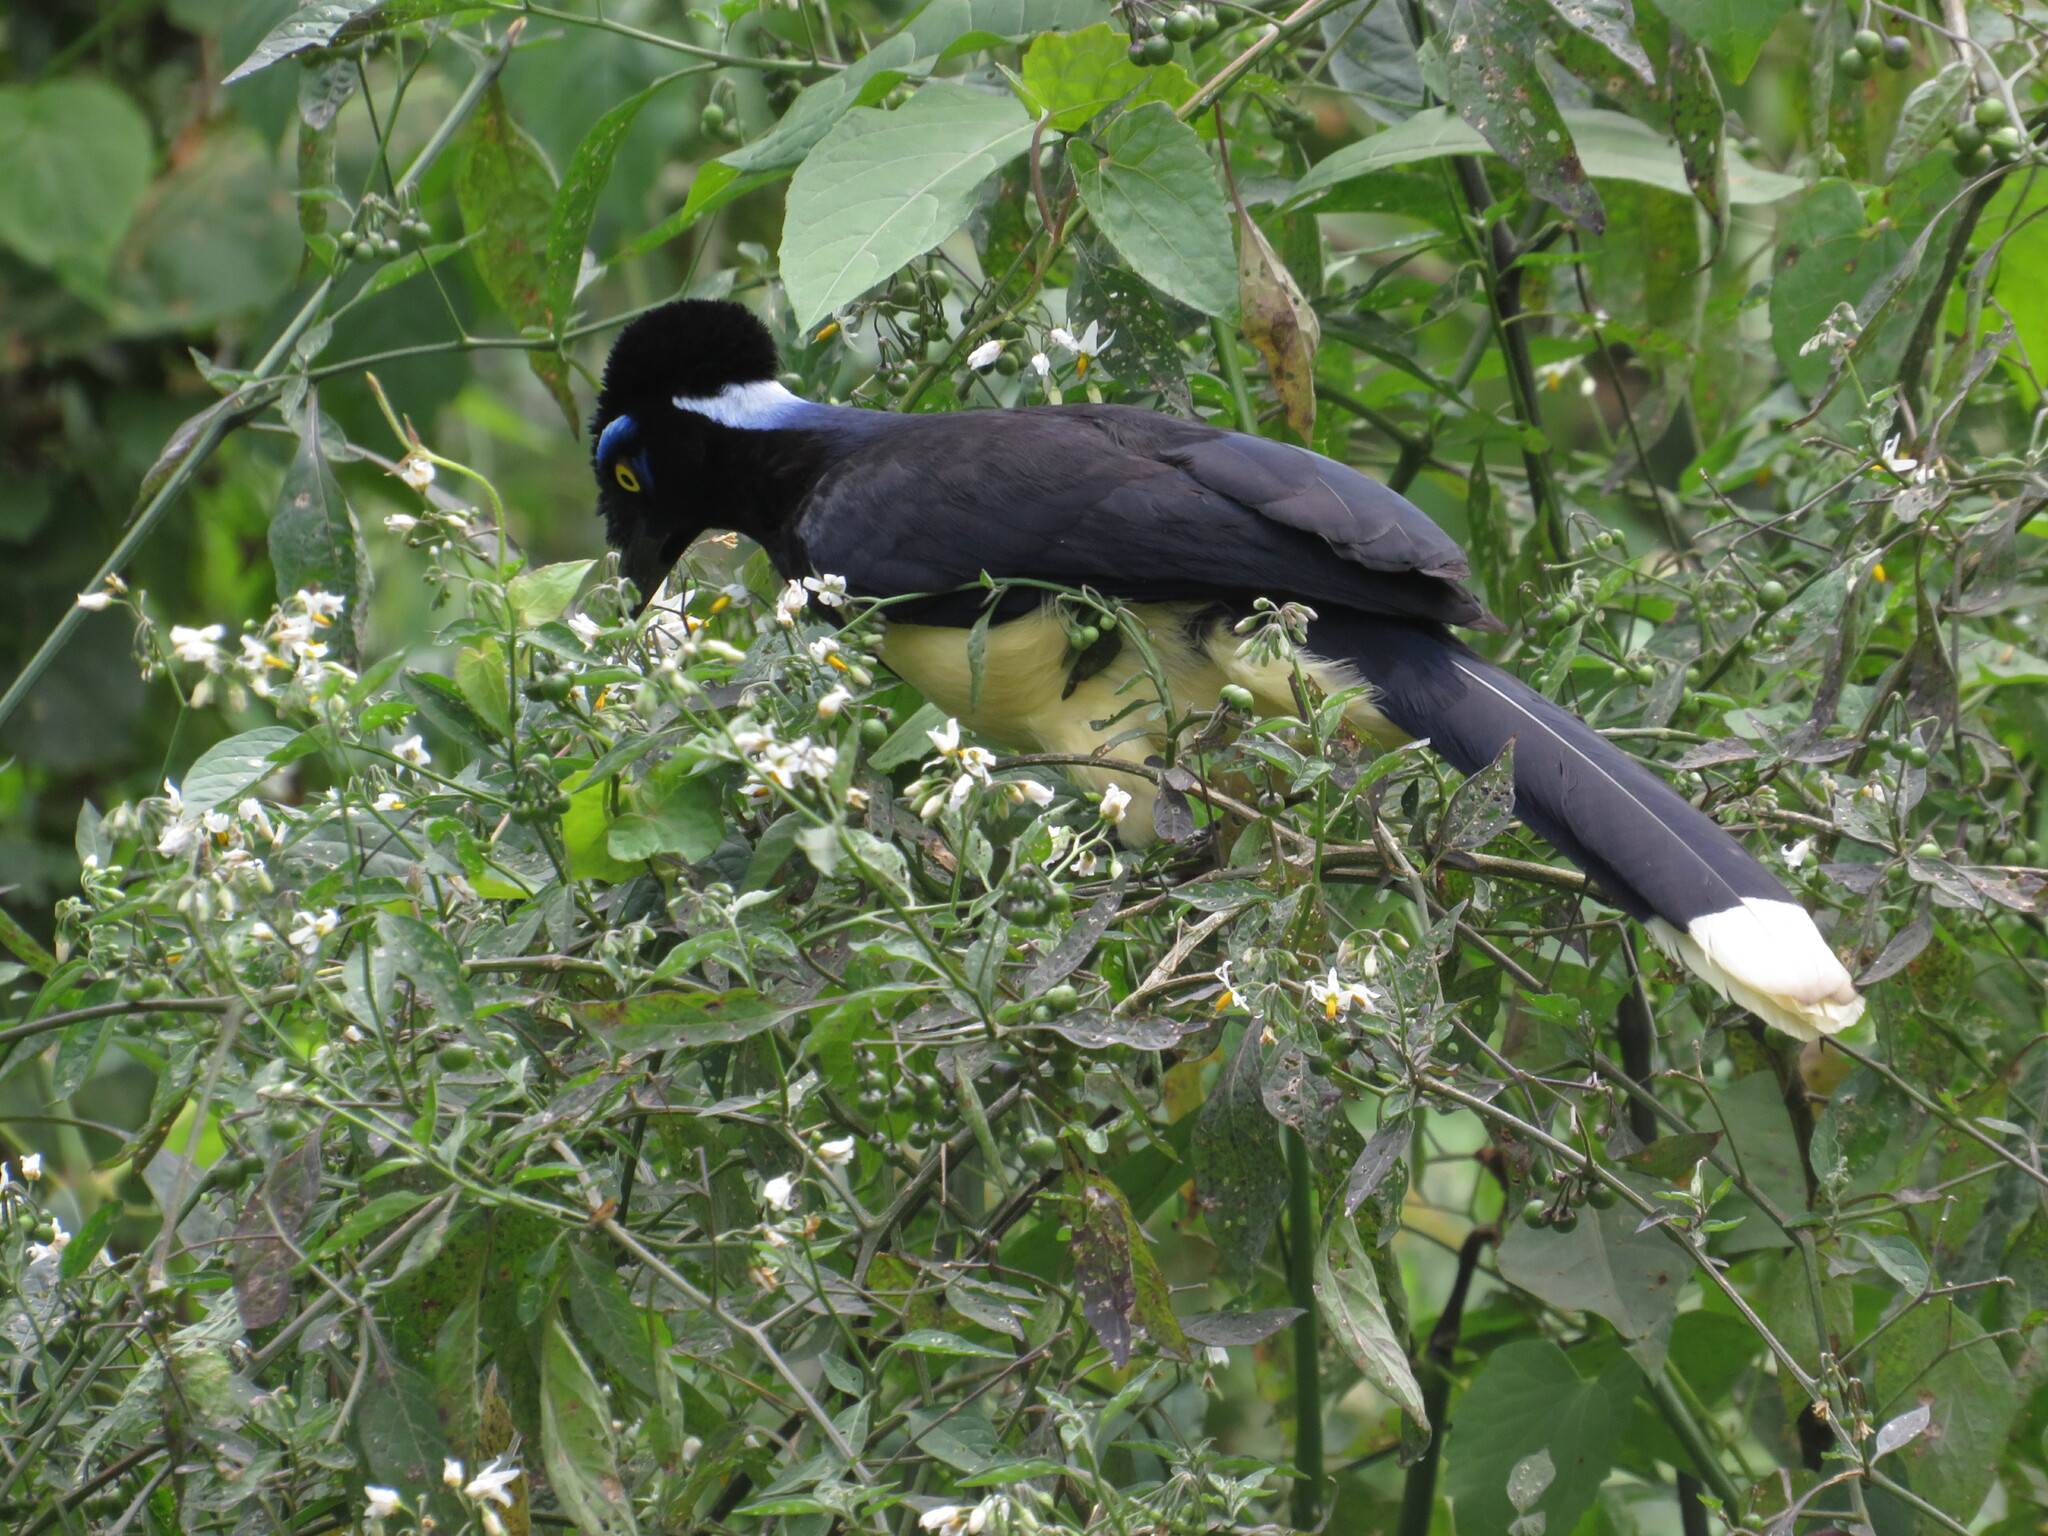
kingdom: Animalia
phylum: Chordata
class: Aves
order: Passeriformes
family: Corvidae
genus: Cyanocorax
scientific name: Cyanocorax chrysops
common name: Plush-crested jay
